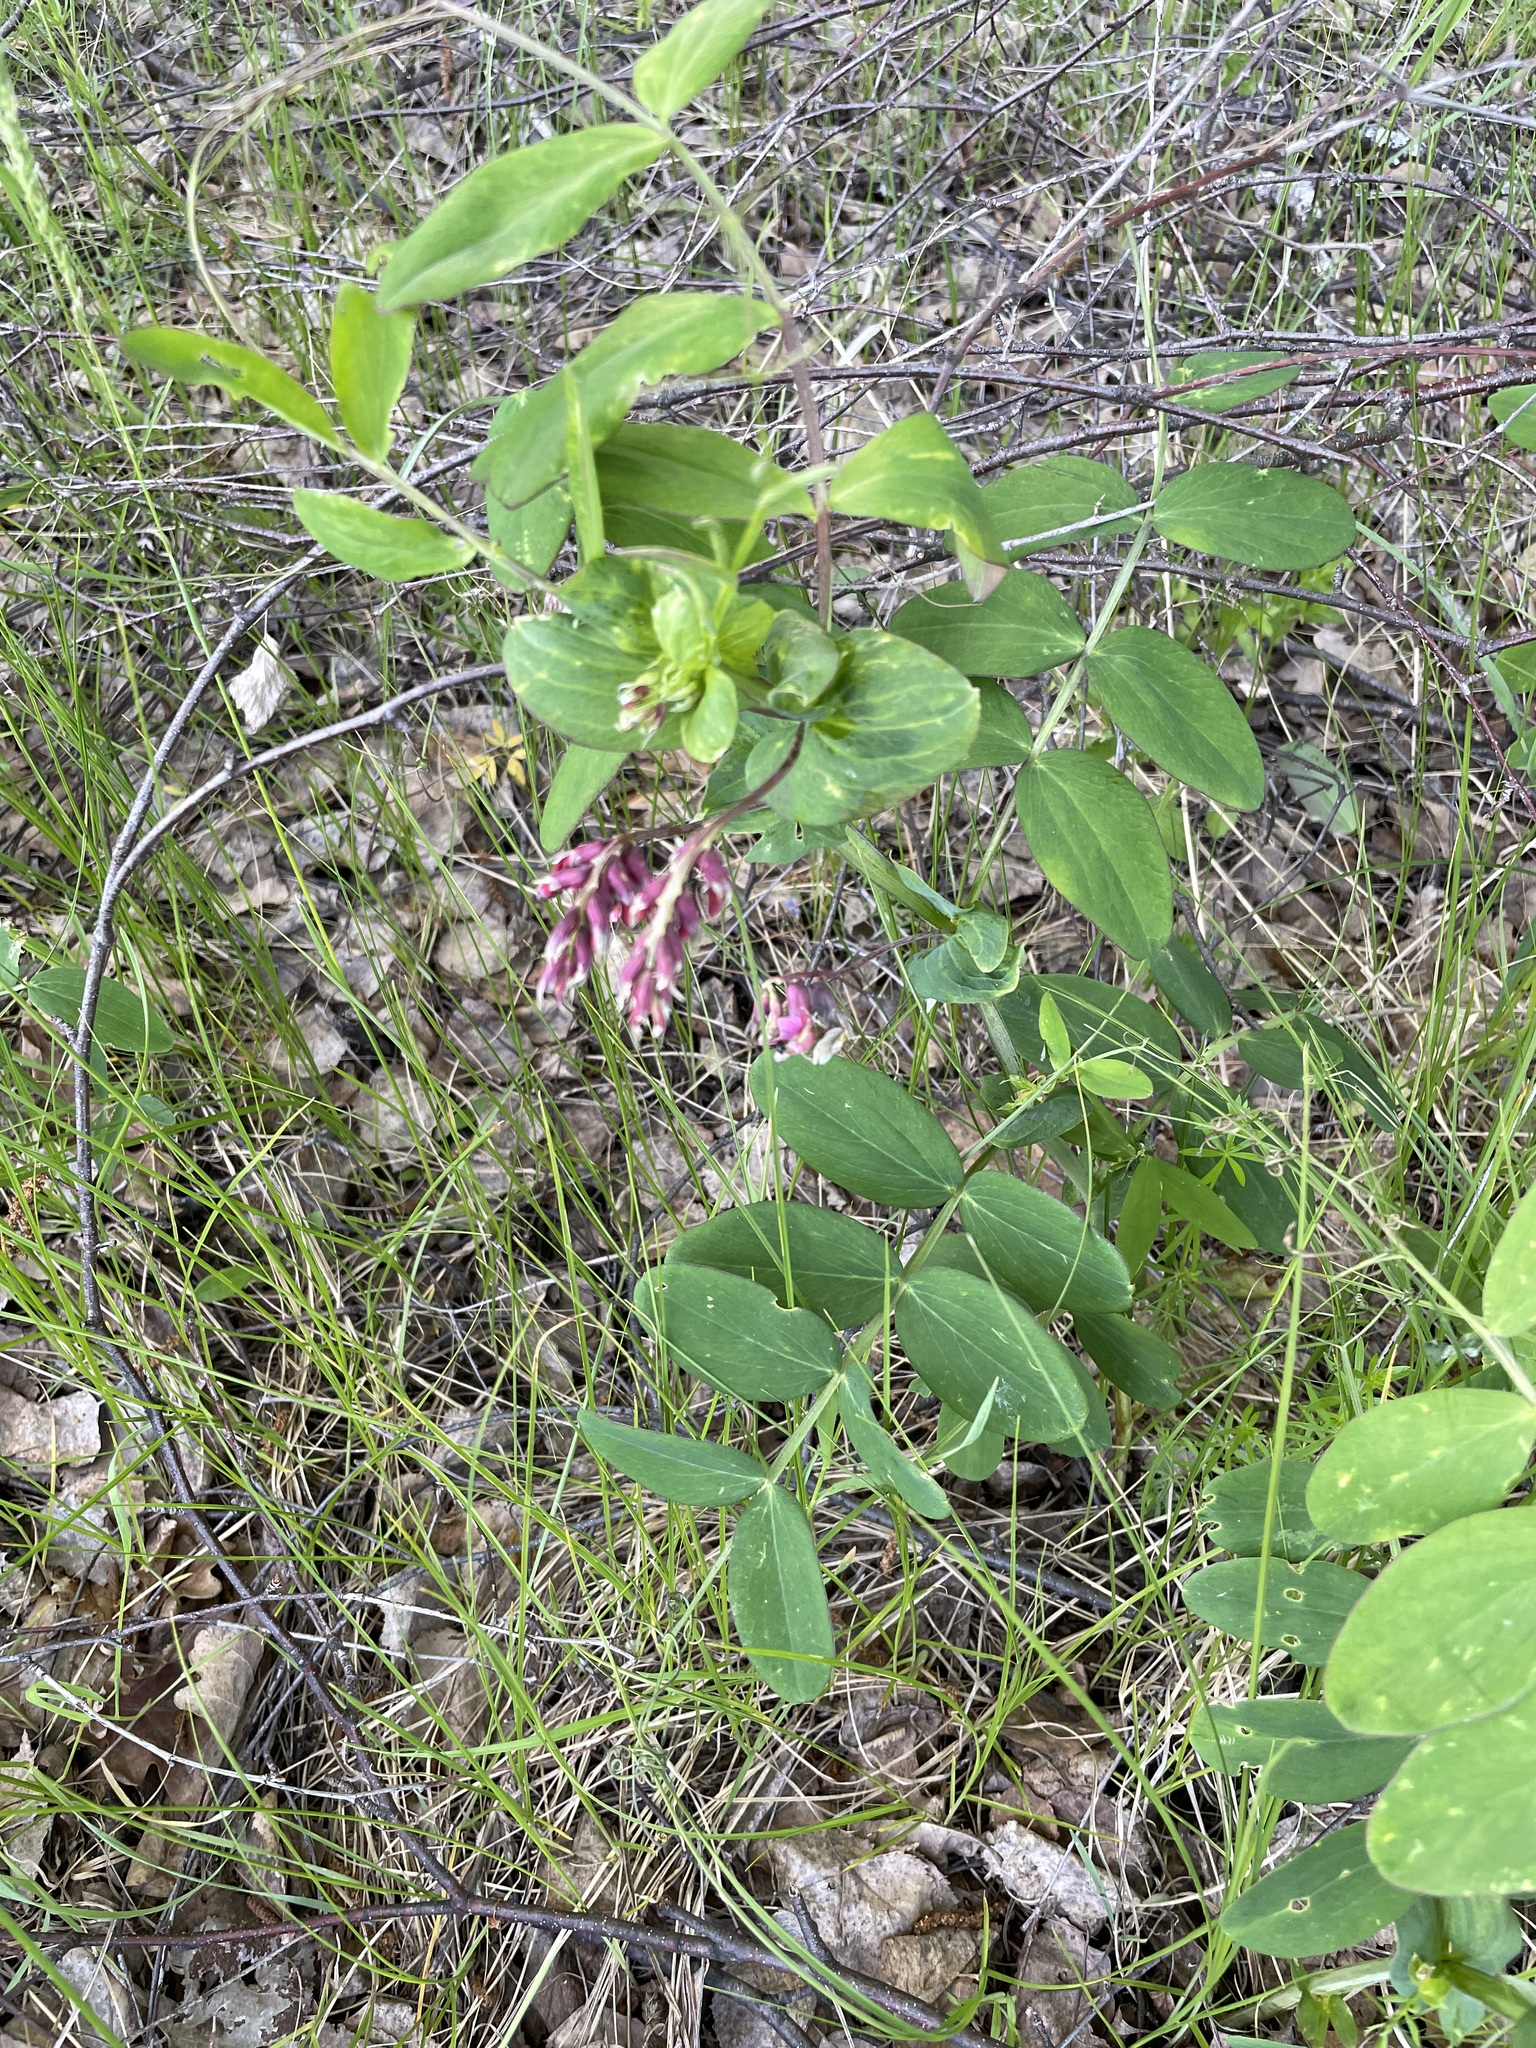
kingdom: Plantae
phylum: Tracheophyta
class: Magnoliopsida
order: Fabales
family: Fabaceae
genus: Lathyrus
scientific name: Lathyrus pisiformis
